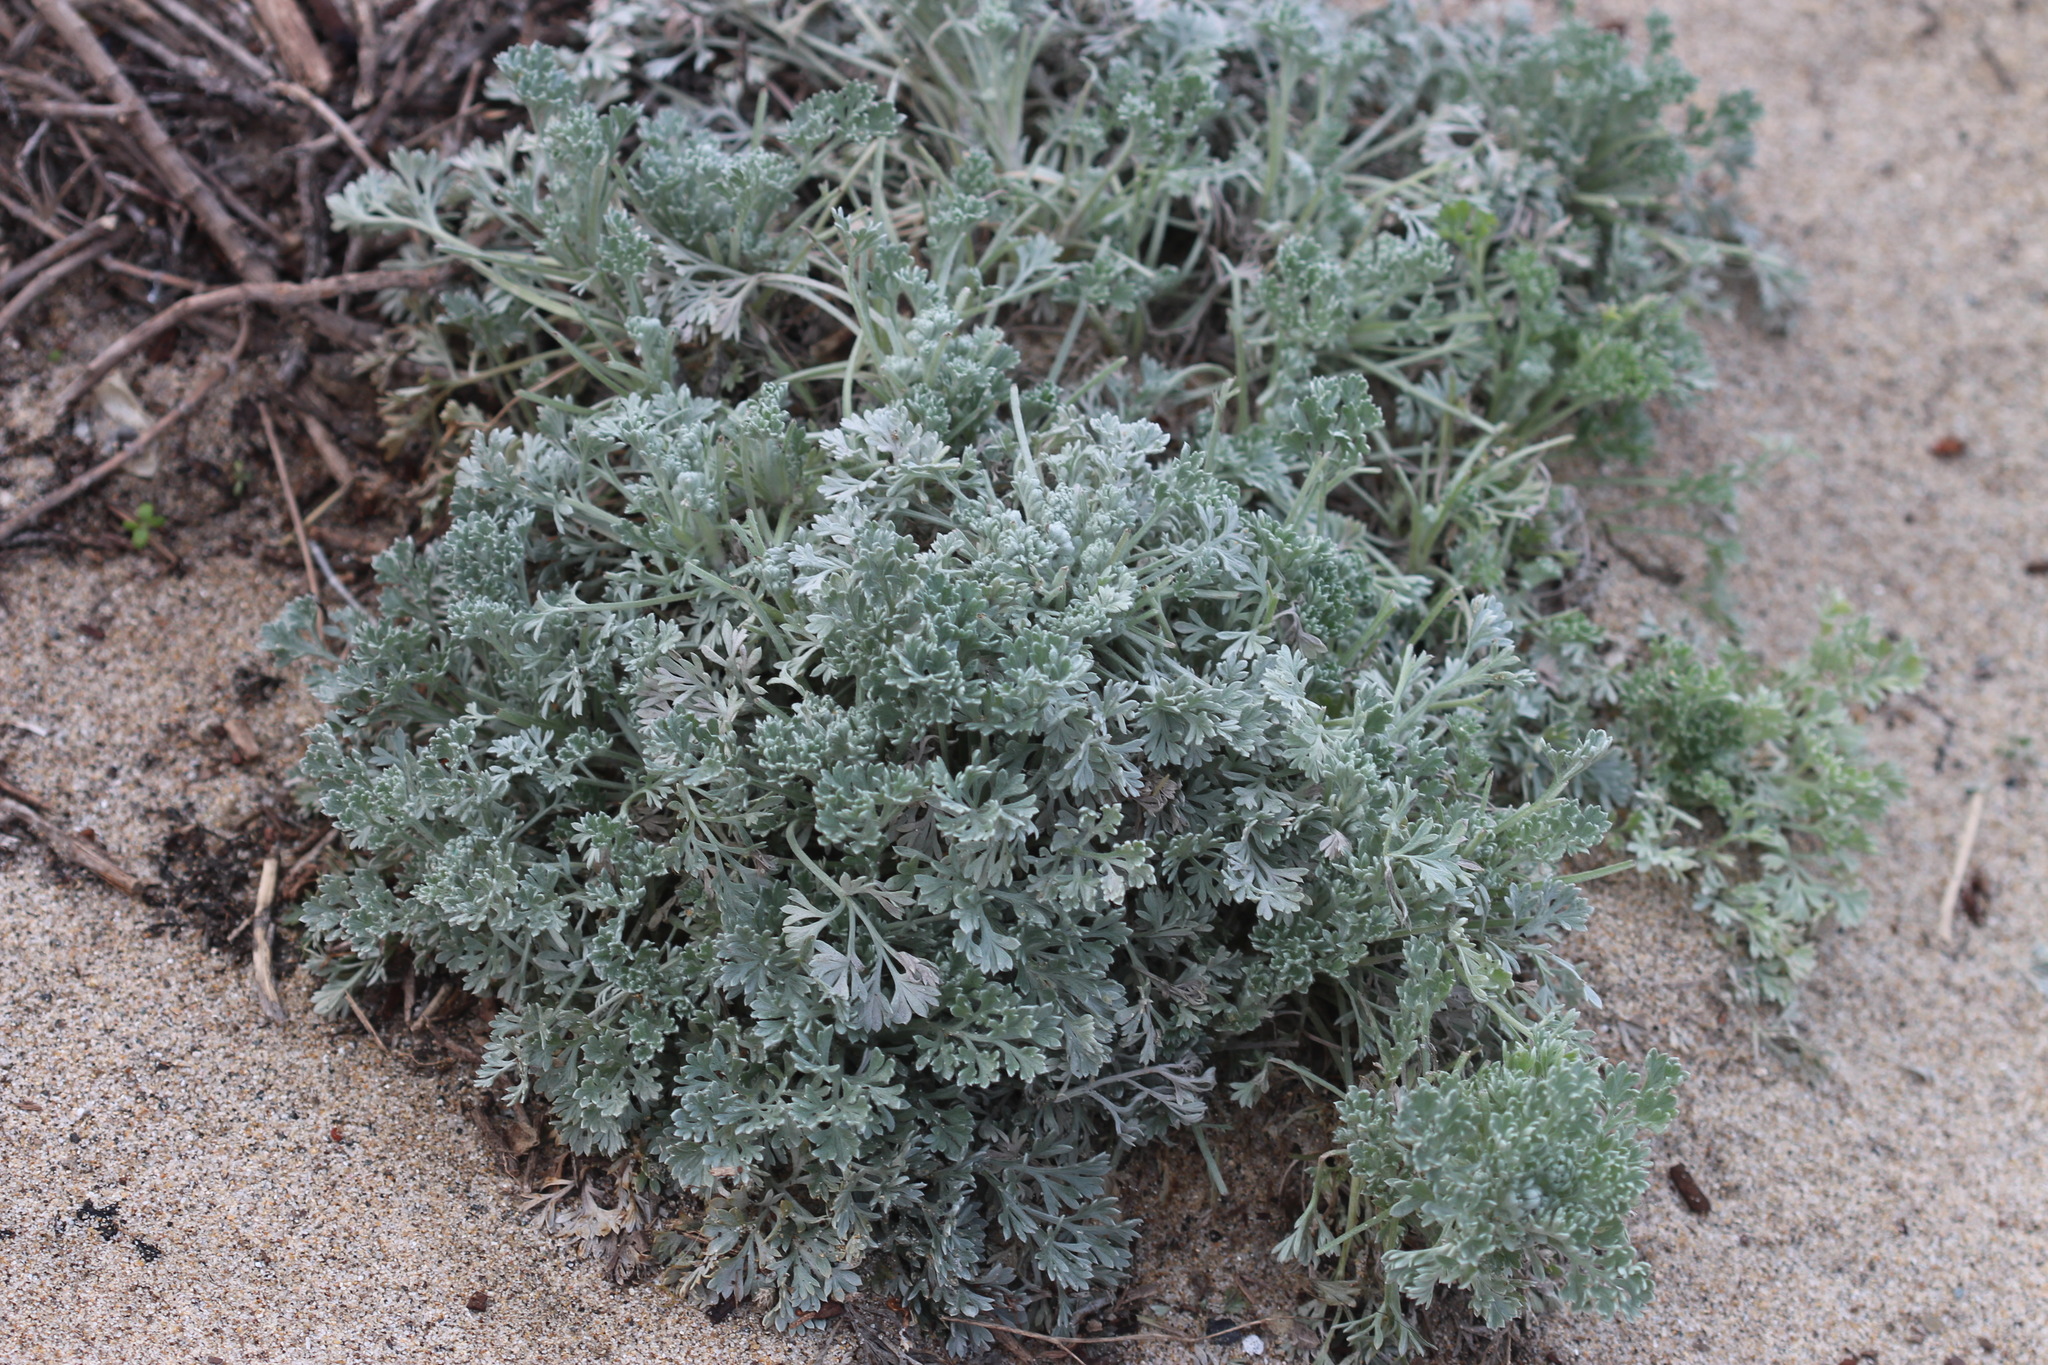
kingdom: Plantae
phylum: Tracheophyta
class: Magnoliopsida
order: Asterales
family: Asteraceae
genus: Artemisia
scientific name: Artemisia pycnocephala
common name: Coastal sagewort
